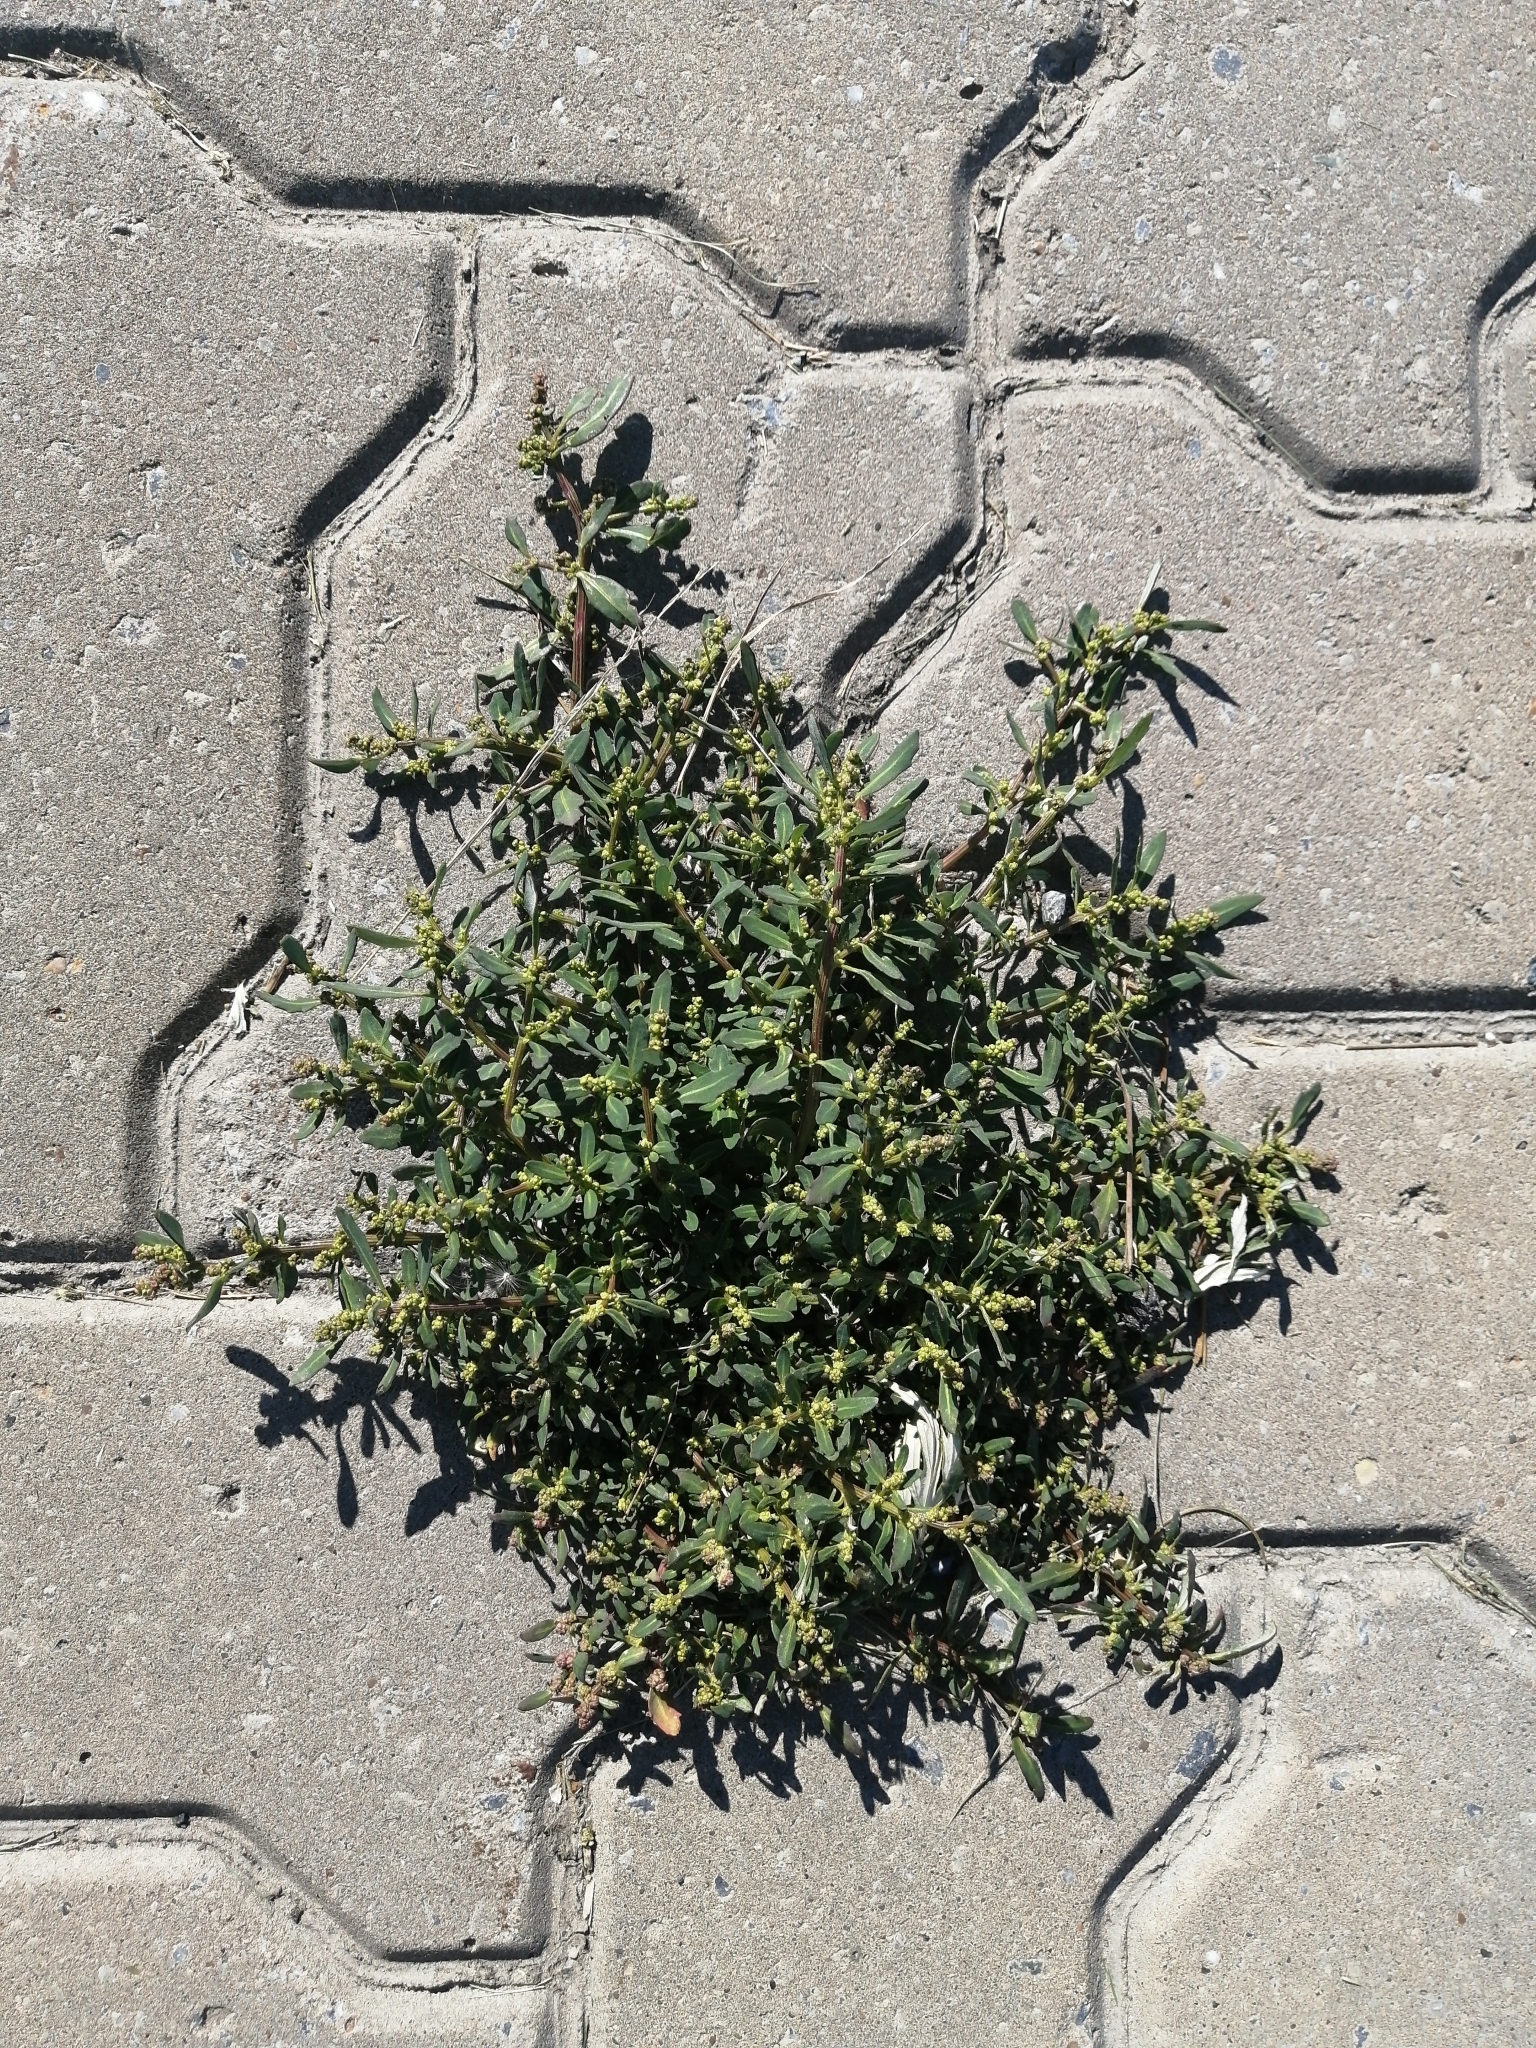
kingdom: Plantae
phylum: Tracheophyta
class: Magnoliopsida
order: Caryophyllales
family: Amaranthaceae
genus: Oxybasis
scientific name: Oxybasis glauca
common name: Glaucous goosefoot
